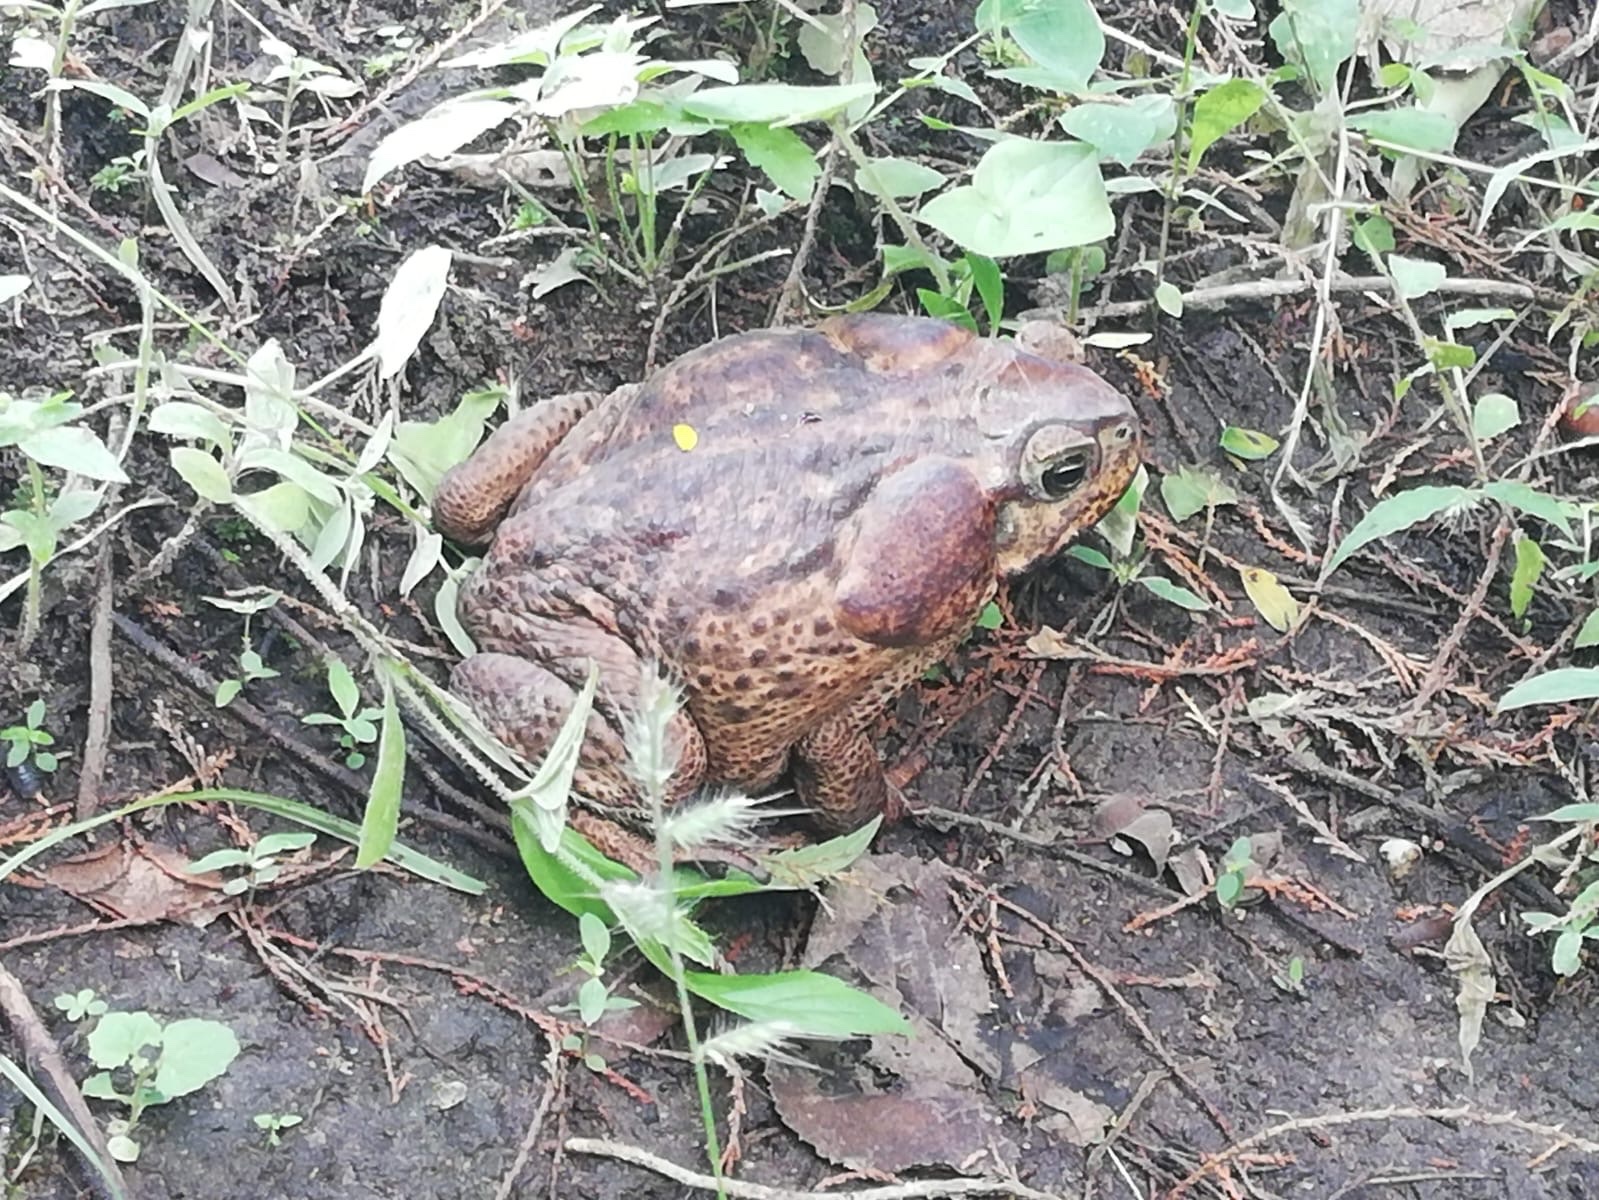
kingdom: Animalia
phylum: Chordata
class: Amphibia
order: Anura
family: Bufonidae
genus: Rhinella
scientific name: Rhinella horribilis
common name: Mesoamerican cane toad
